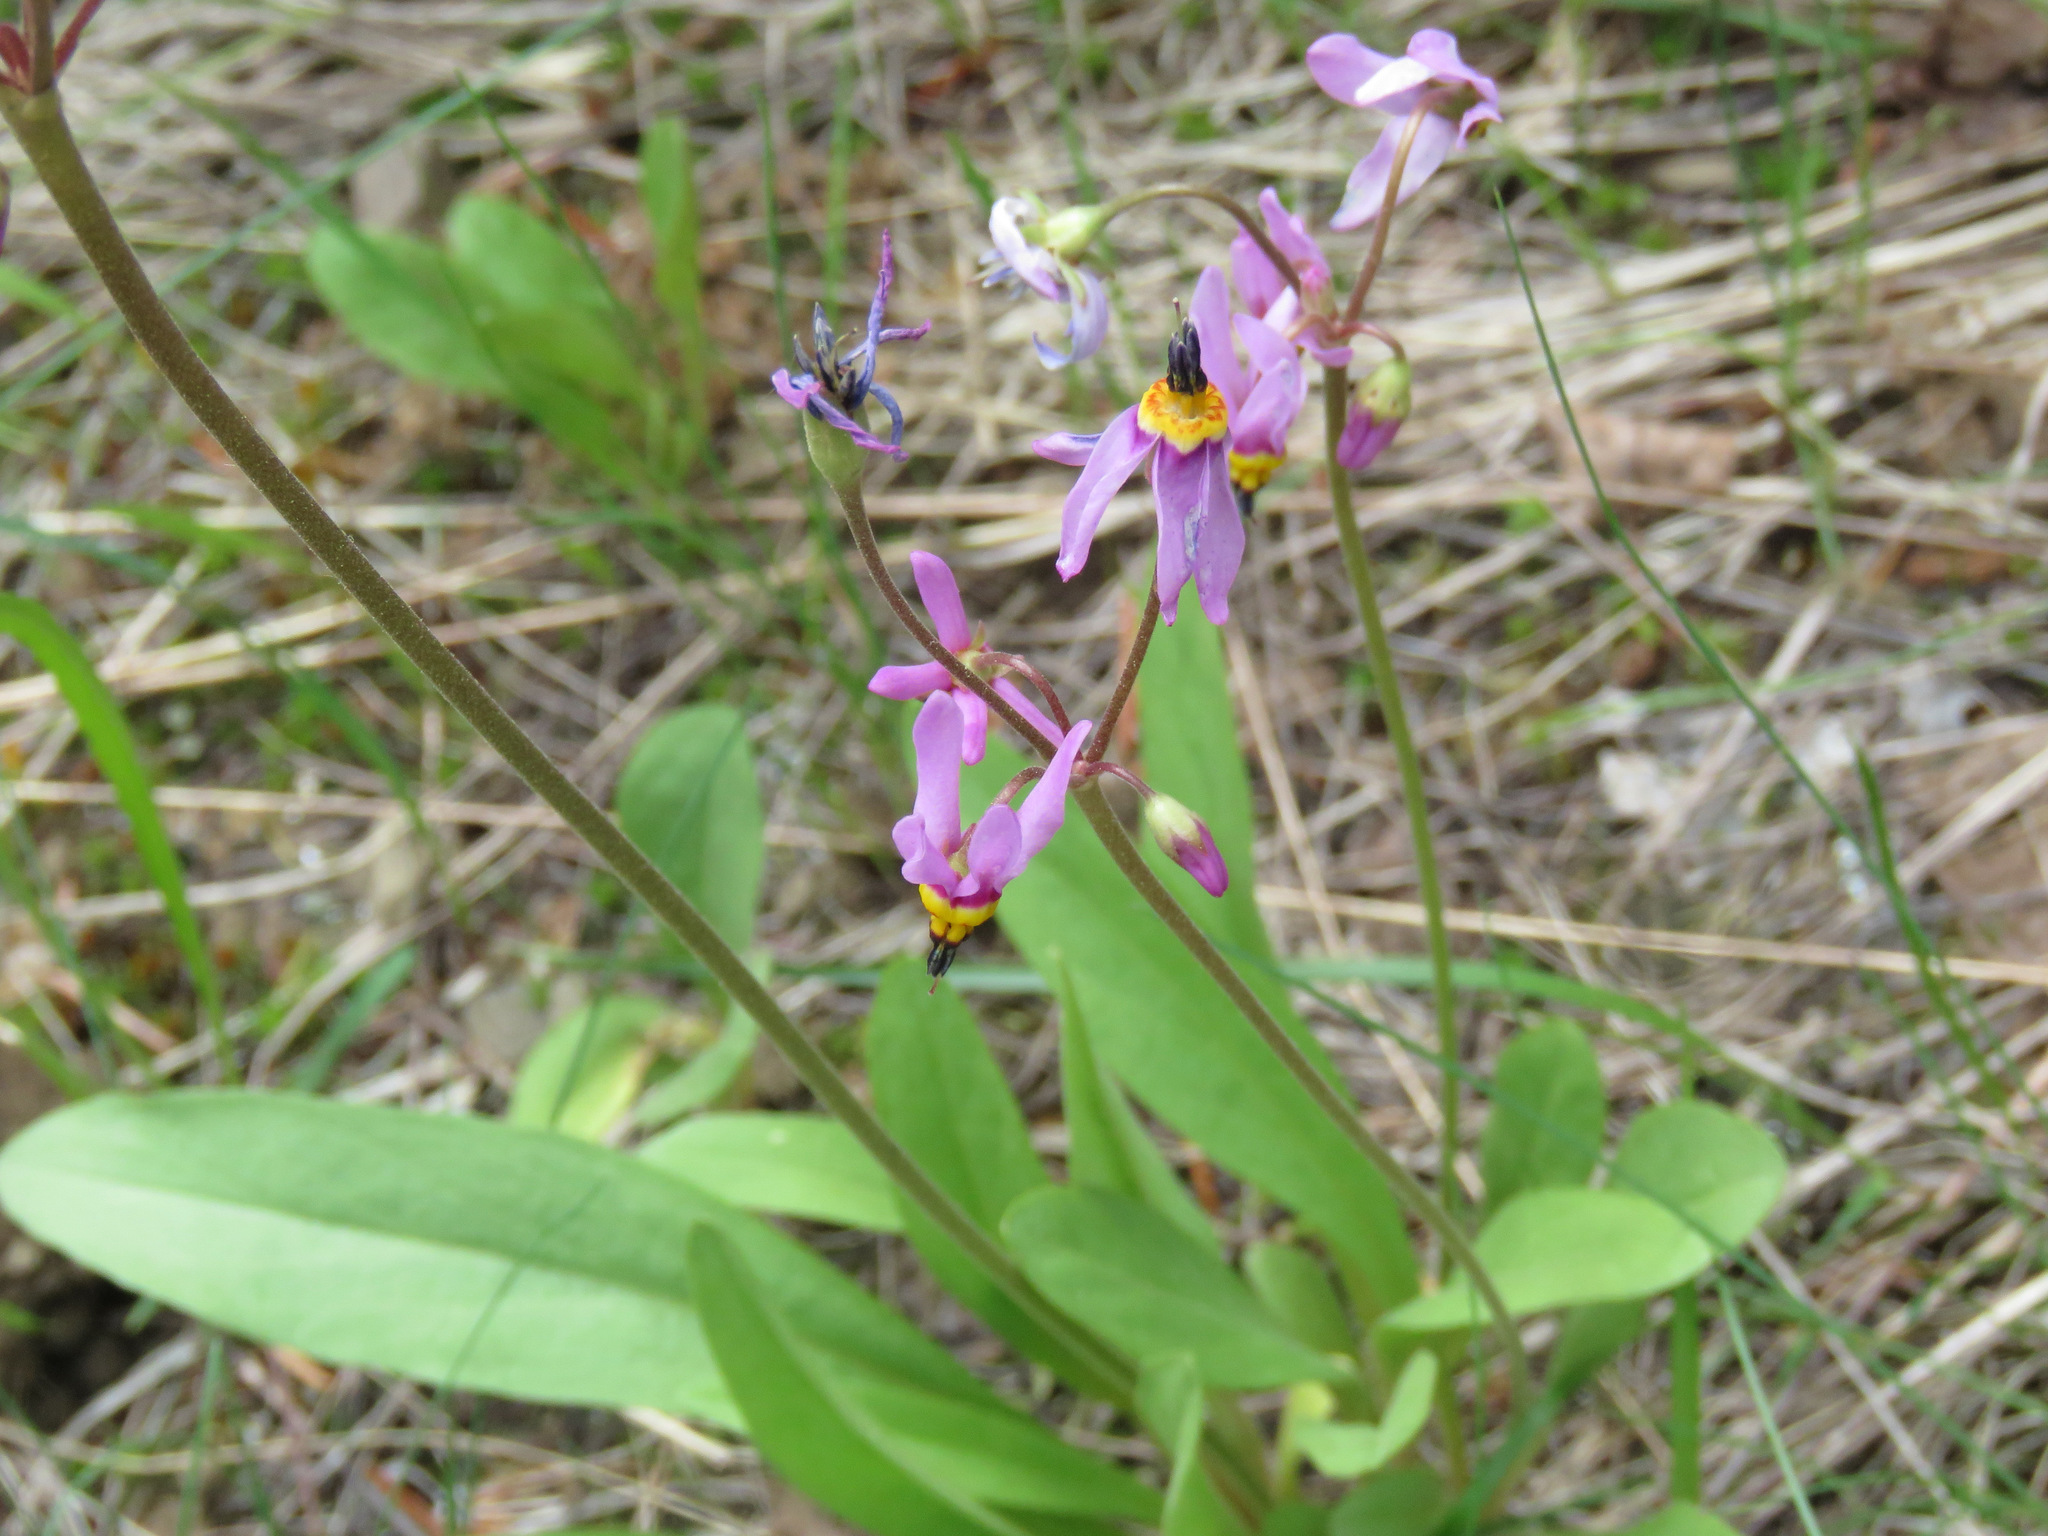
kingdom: Plantae
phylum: Tracheophyta
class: Magnoliopsida
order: Ericales
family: Primulaceae
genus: Dodecatheon
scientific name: Dodecatheon pulchellum
